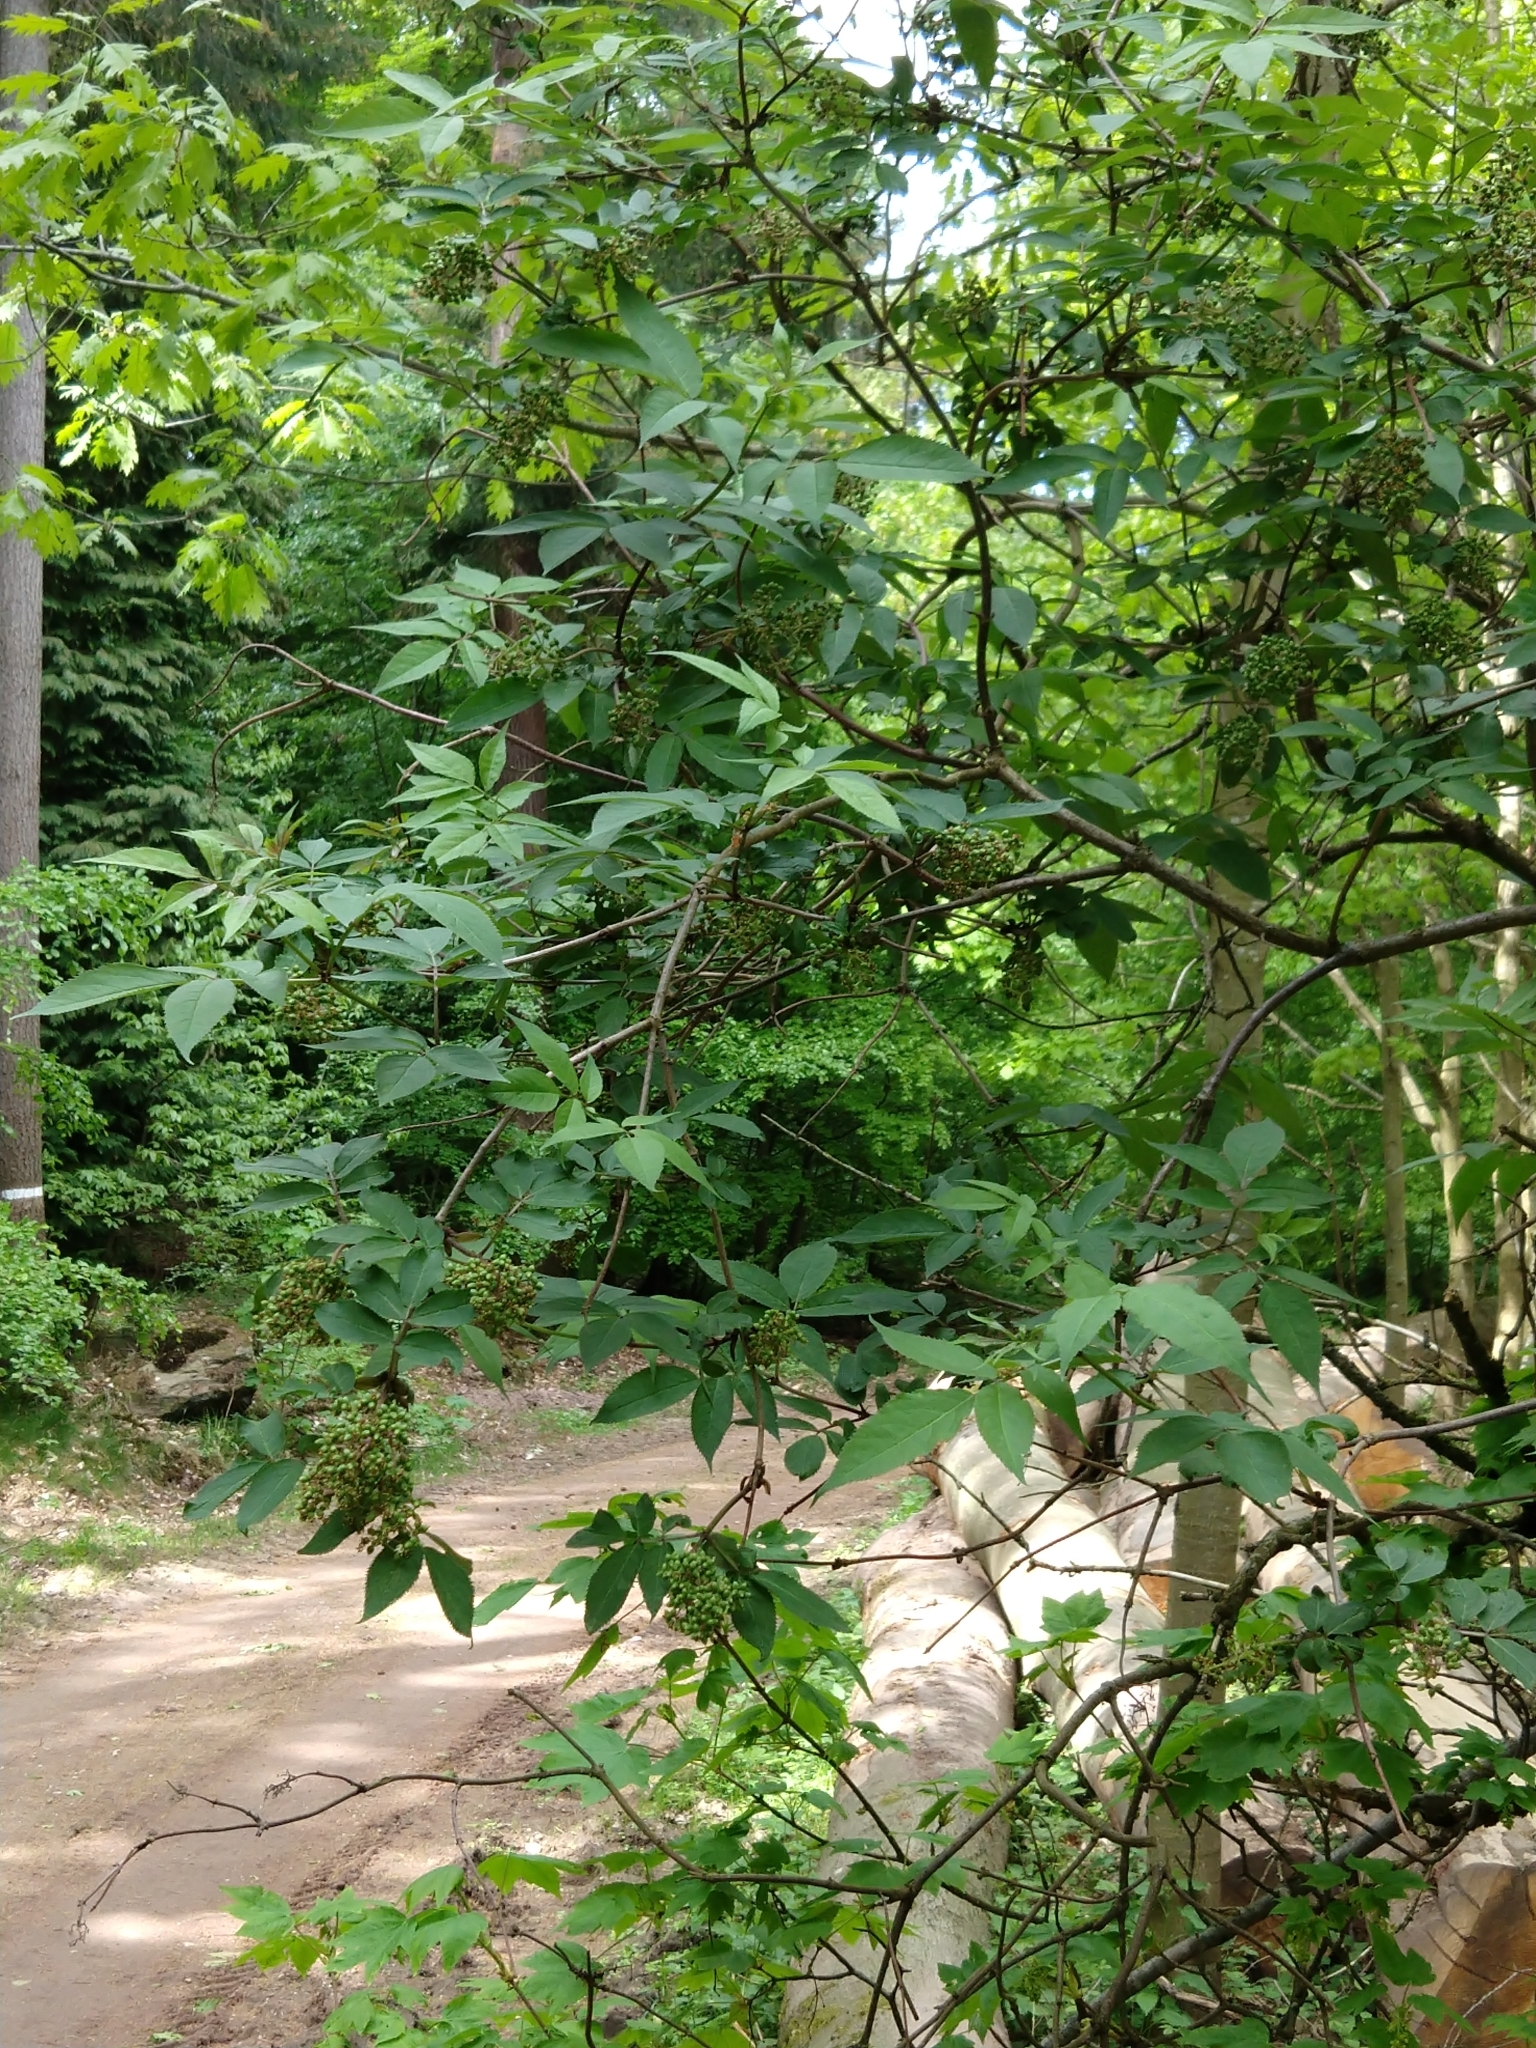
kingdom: Plantae
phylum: Tracheophyta
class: Magnoliopsida
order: Dipsacales
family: Viburnaceae
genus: Sambucus
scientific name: Sambucus racemosa
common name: Red-berried elder
